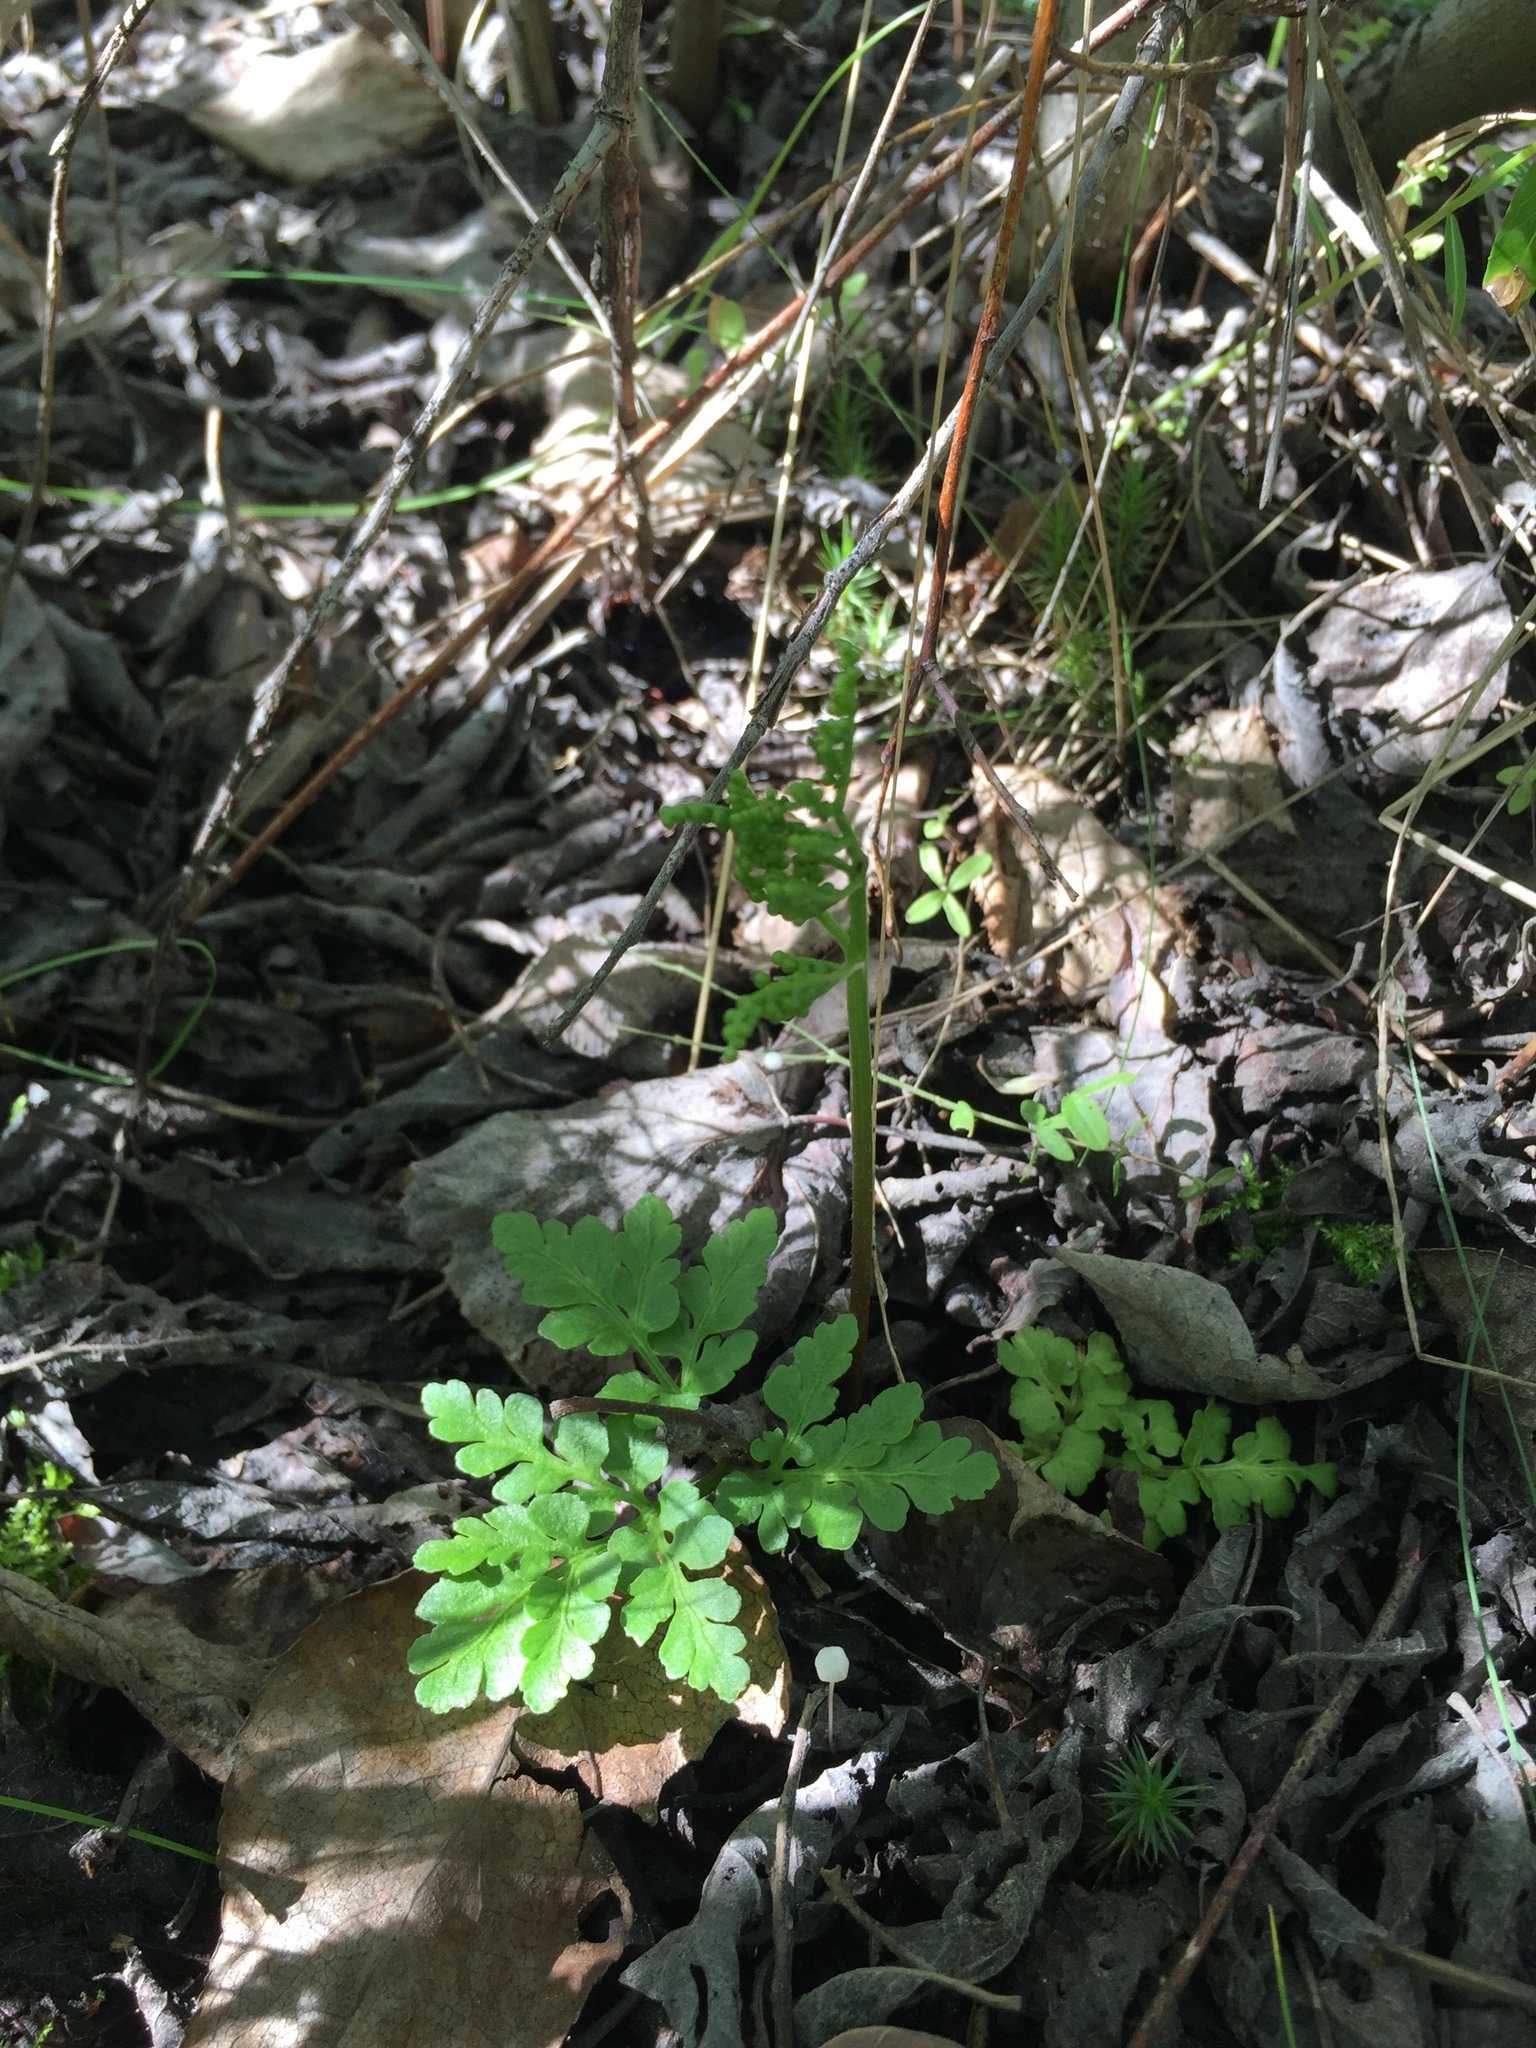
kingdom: Plantae
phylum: Tracheophyta
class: Polypodiopsida
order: Ophioglossales
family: Ophioglossaceae
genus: Sceptridium
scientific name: Sceptridium multifidum
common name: Leathery grape fern
